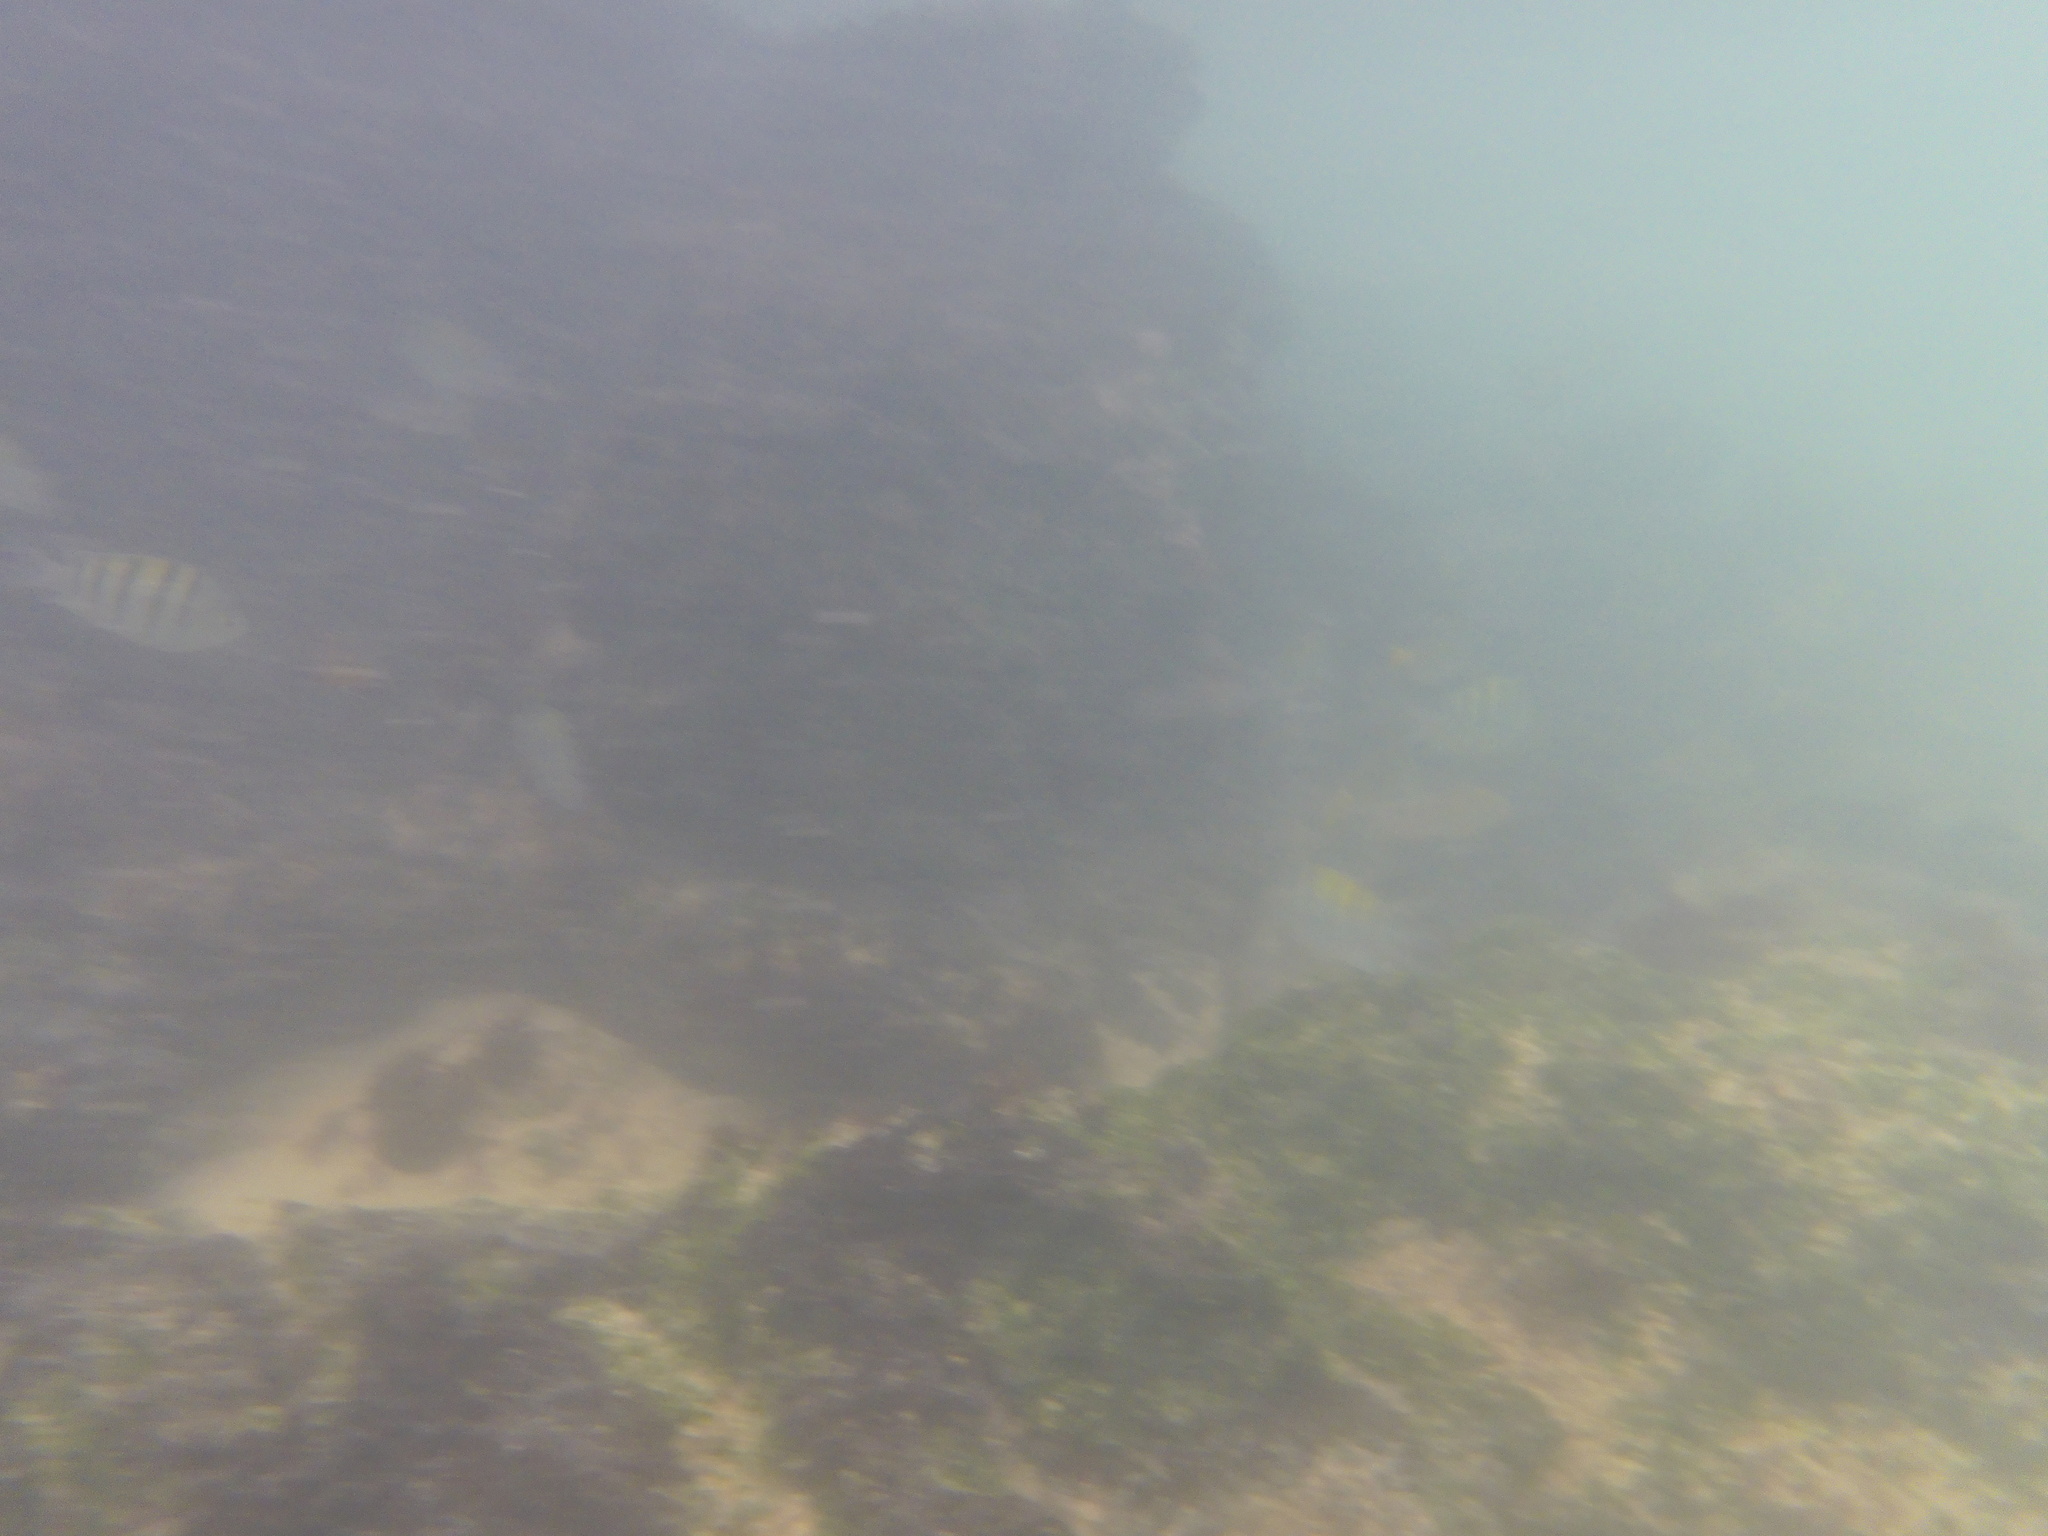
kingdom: Animalia
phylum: Chordata
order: Perciformes
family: Pomacentridae
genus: Abudefduf
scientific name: Abudefduf troschelii
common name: Panamic sergeant major
